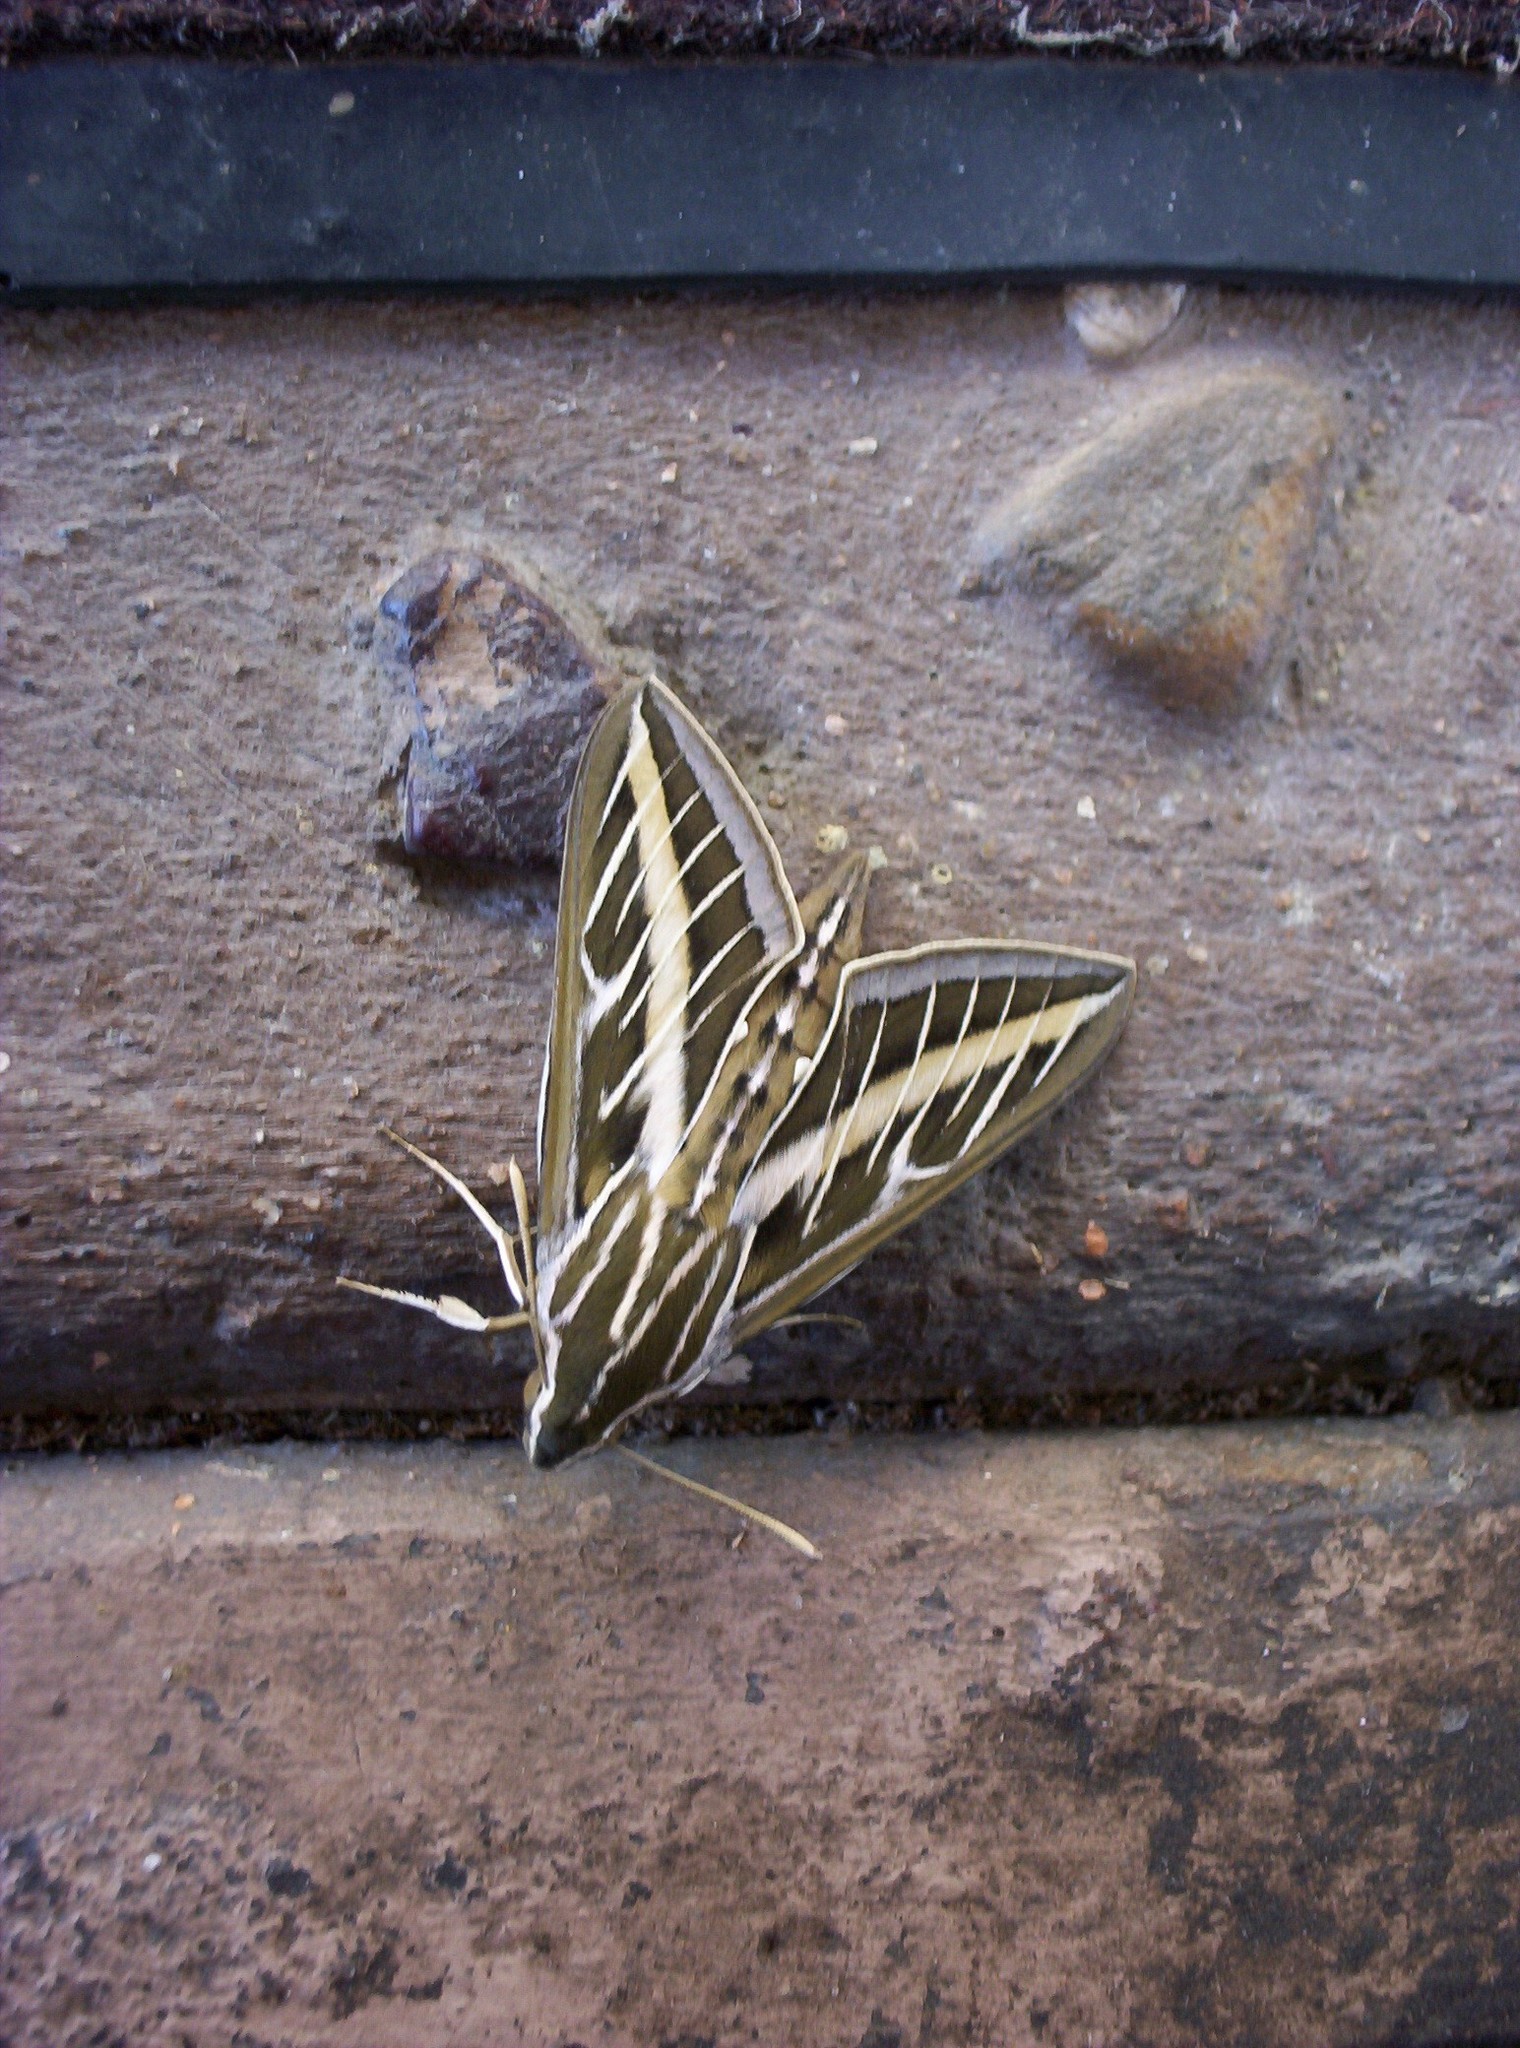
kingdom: Animalia
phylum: Arthropoda
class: Insecta
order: Lepidoptera
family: Sphingidae
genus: Hyles
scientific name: Hyles lineata
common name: White-lined sphinx
